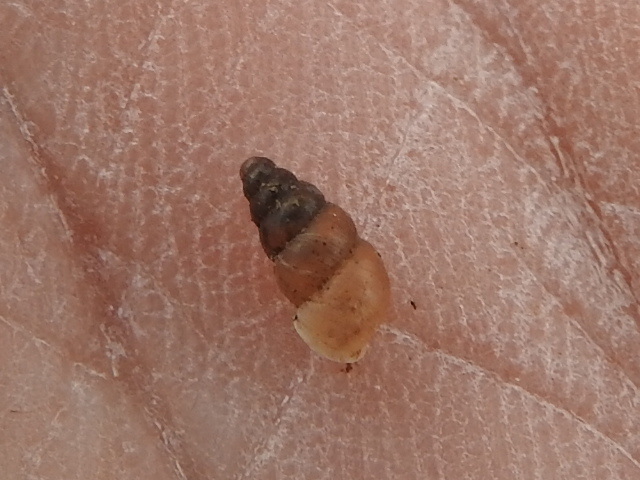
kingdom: Animalia
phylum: Mollusca
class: Gastropoda
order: Stylommatophora
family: Pupillidae
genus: Pupoides
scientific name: Pupoides nitidulus
